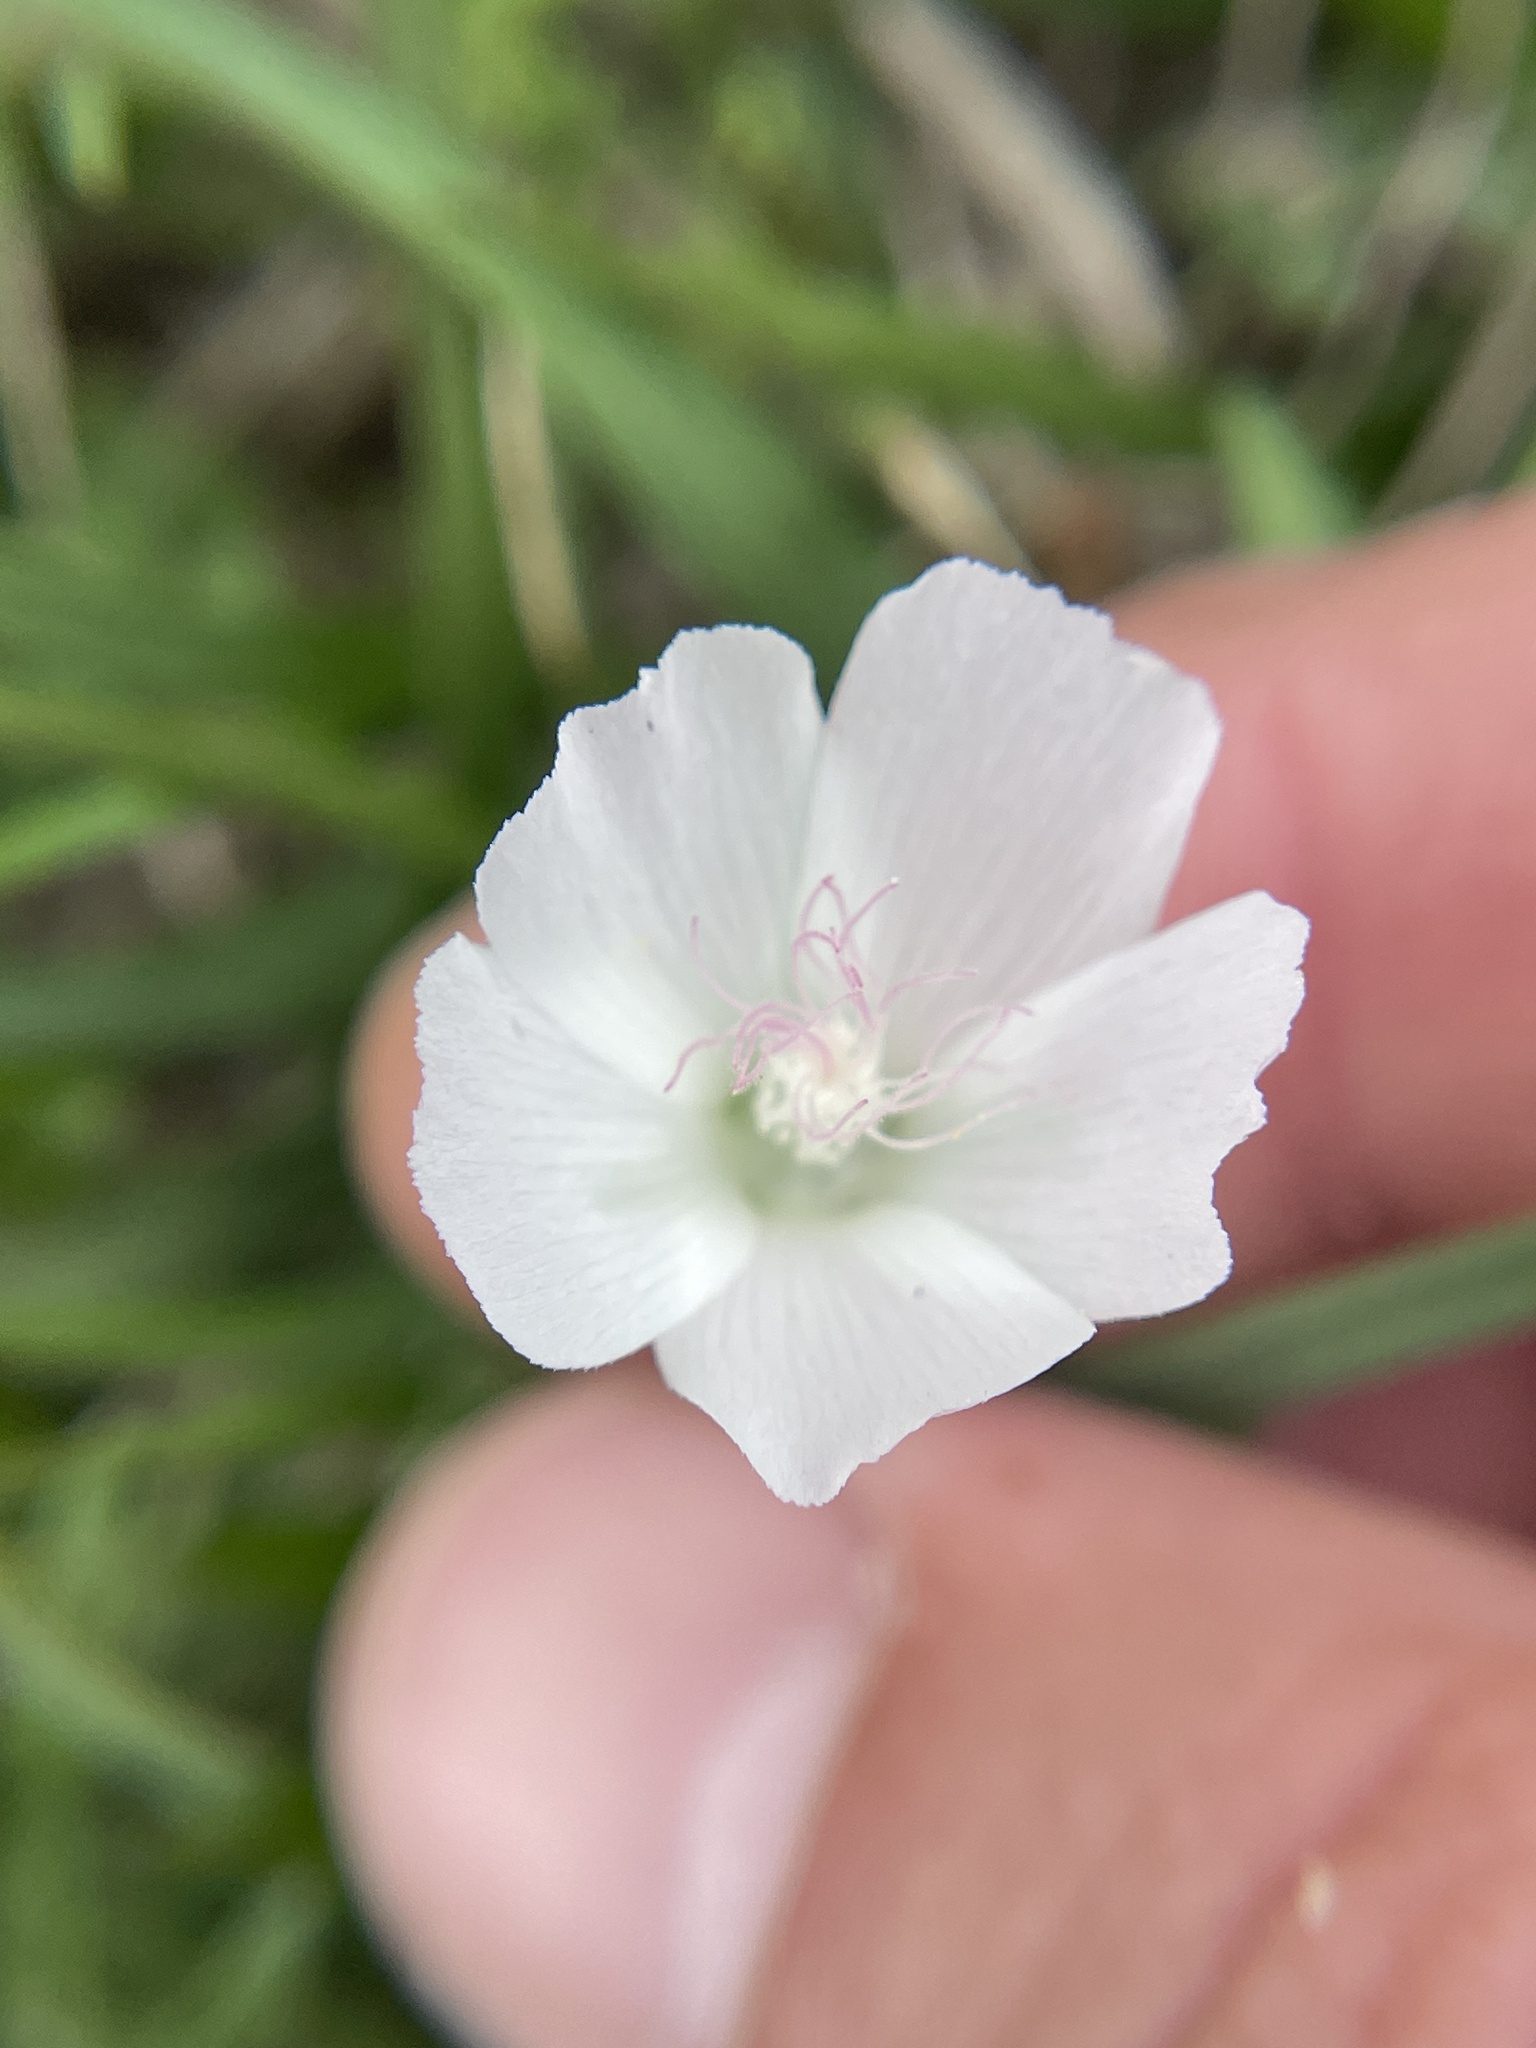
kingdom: Plantae
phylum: Tracheophyta
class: Magnoliopsida
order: Malvales
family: Malvaceae
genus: Callirhoe
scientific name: Callirhoe involucrata
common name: Purple poppy-mallow
